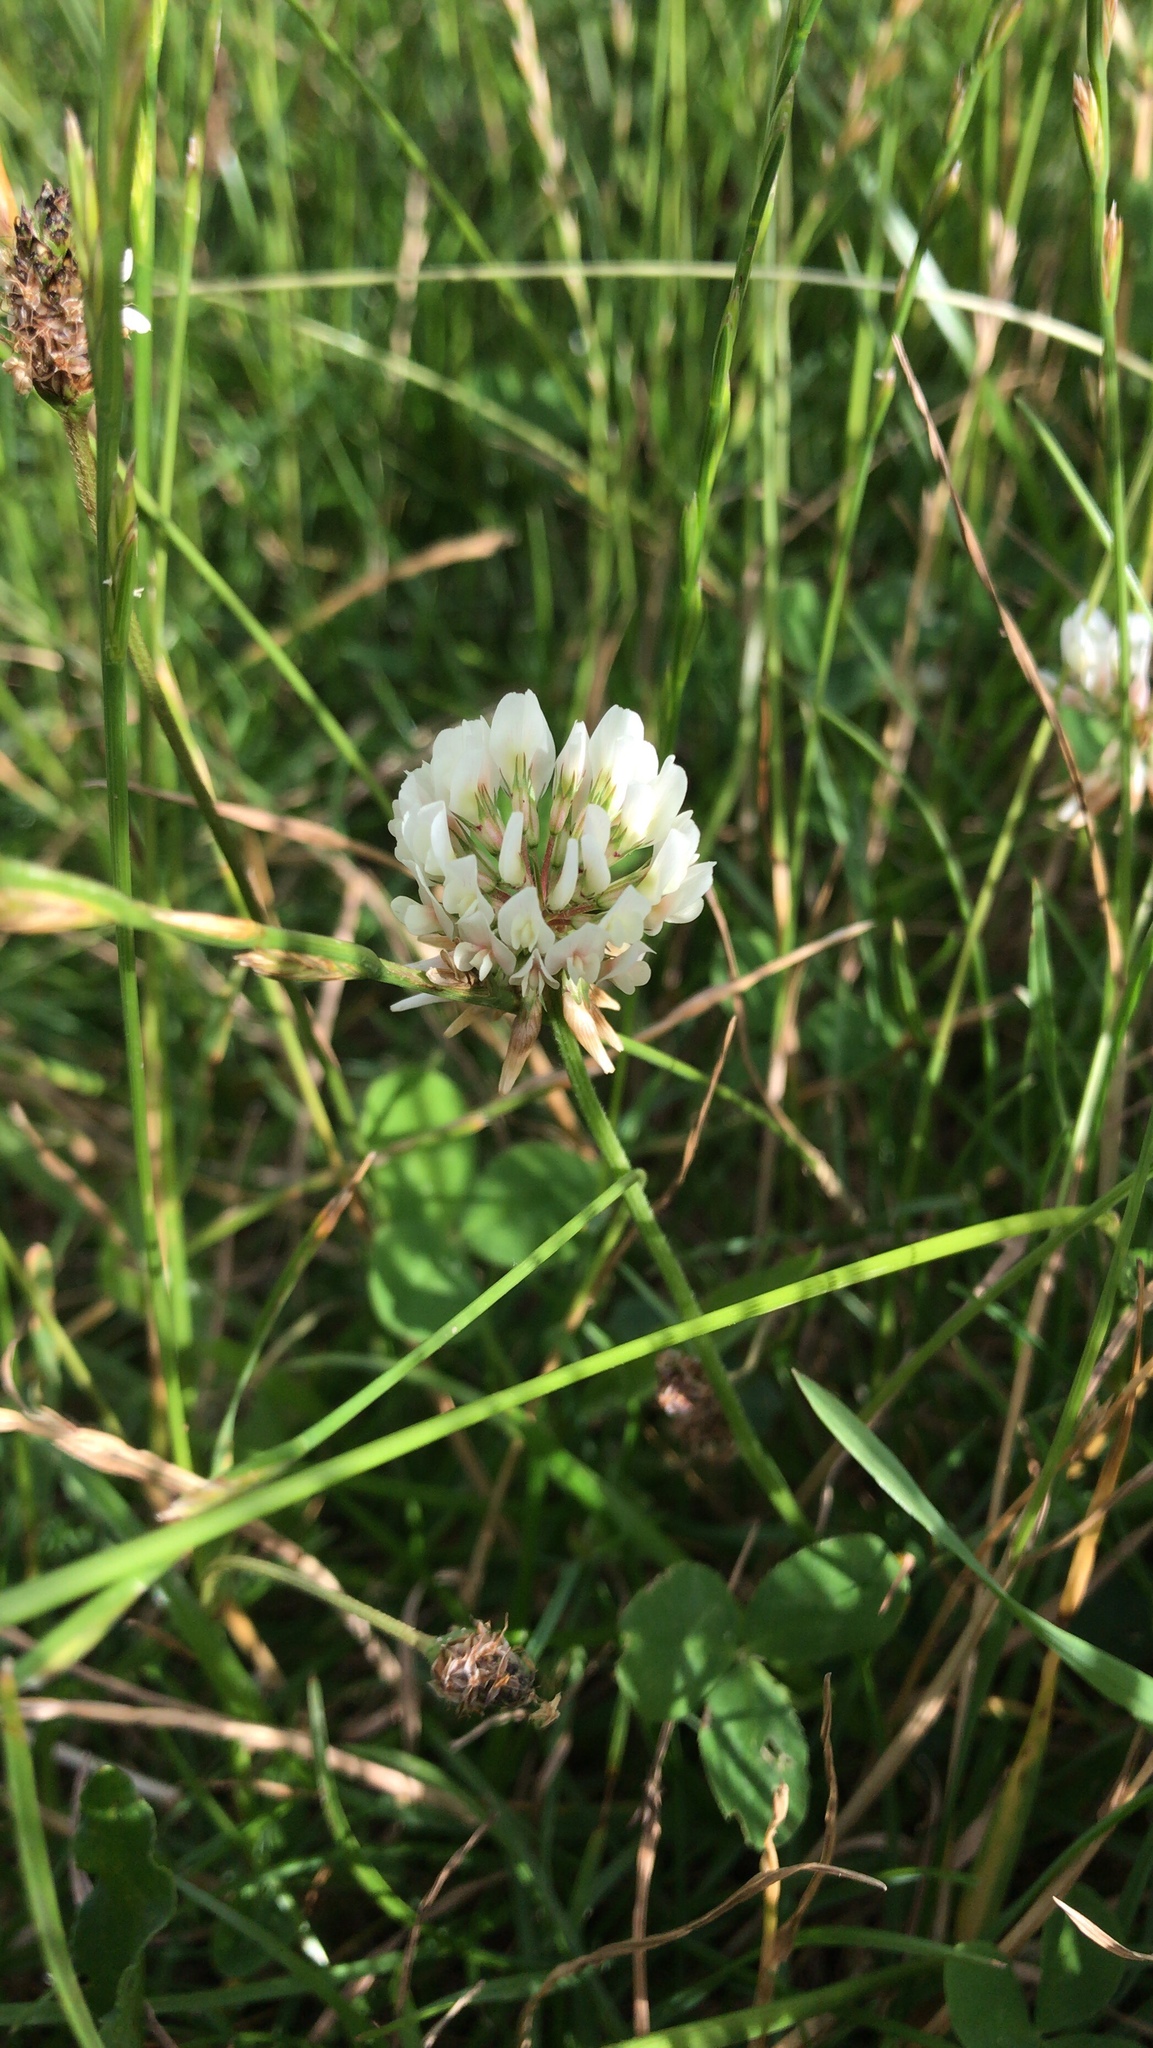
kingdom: Plantae
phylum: Tracheophyta
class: Magnoliopsida
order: Fabales
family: Fabaceae
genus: Trifolium
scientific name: Trifolium repens
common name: White clover
